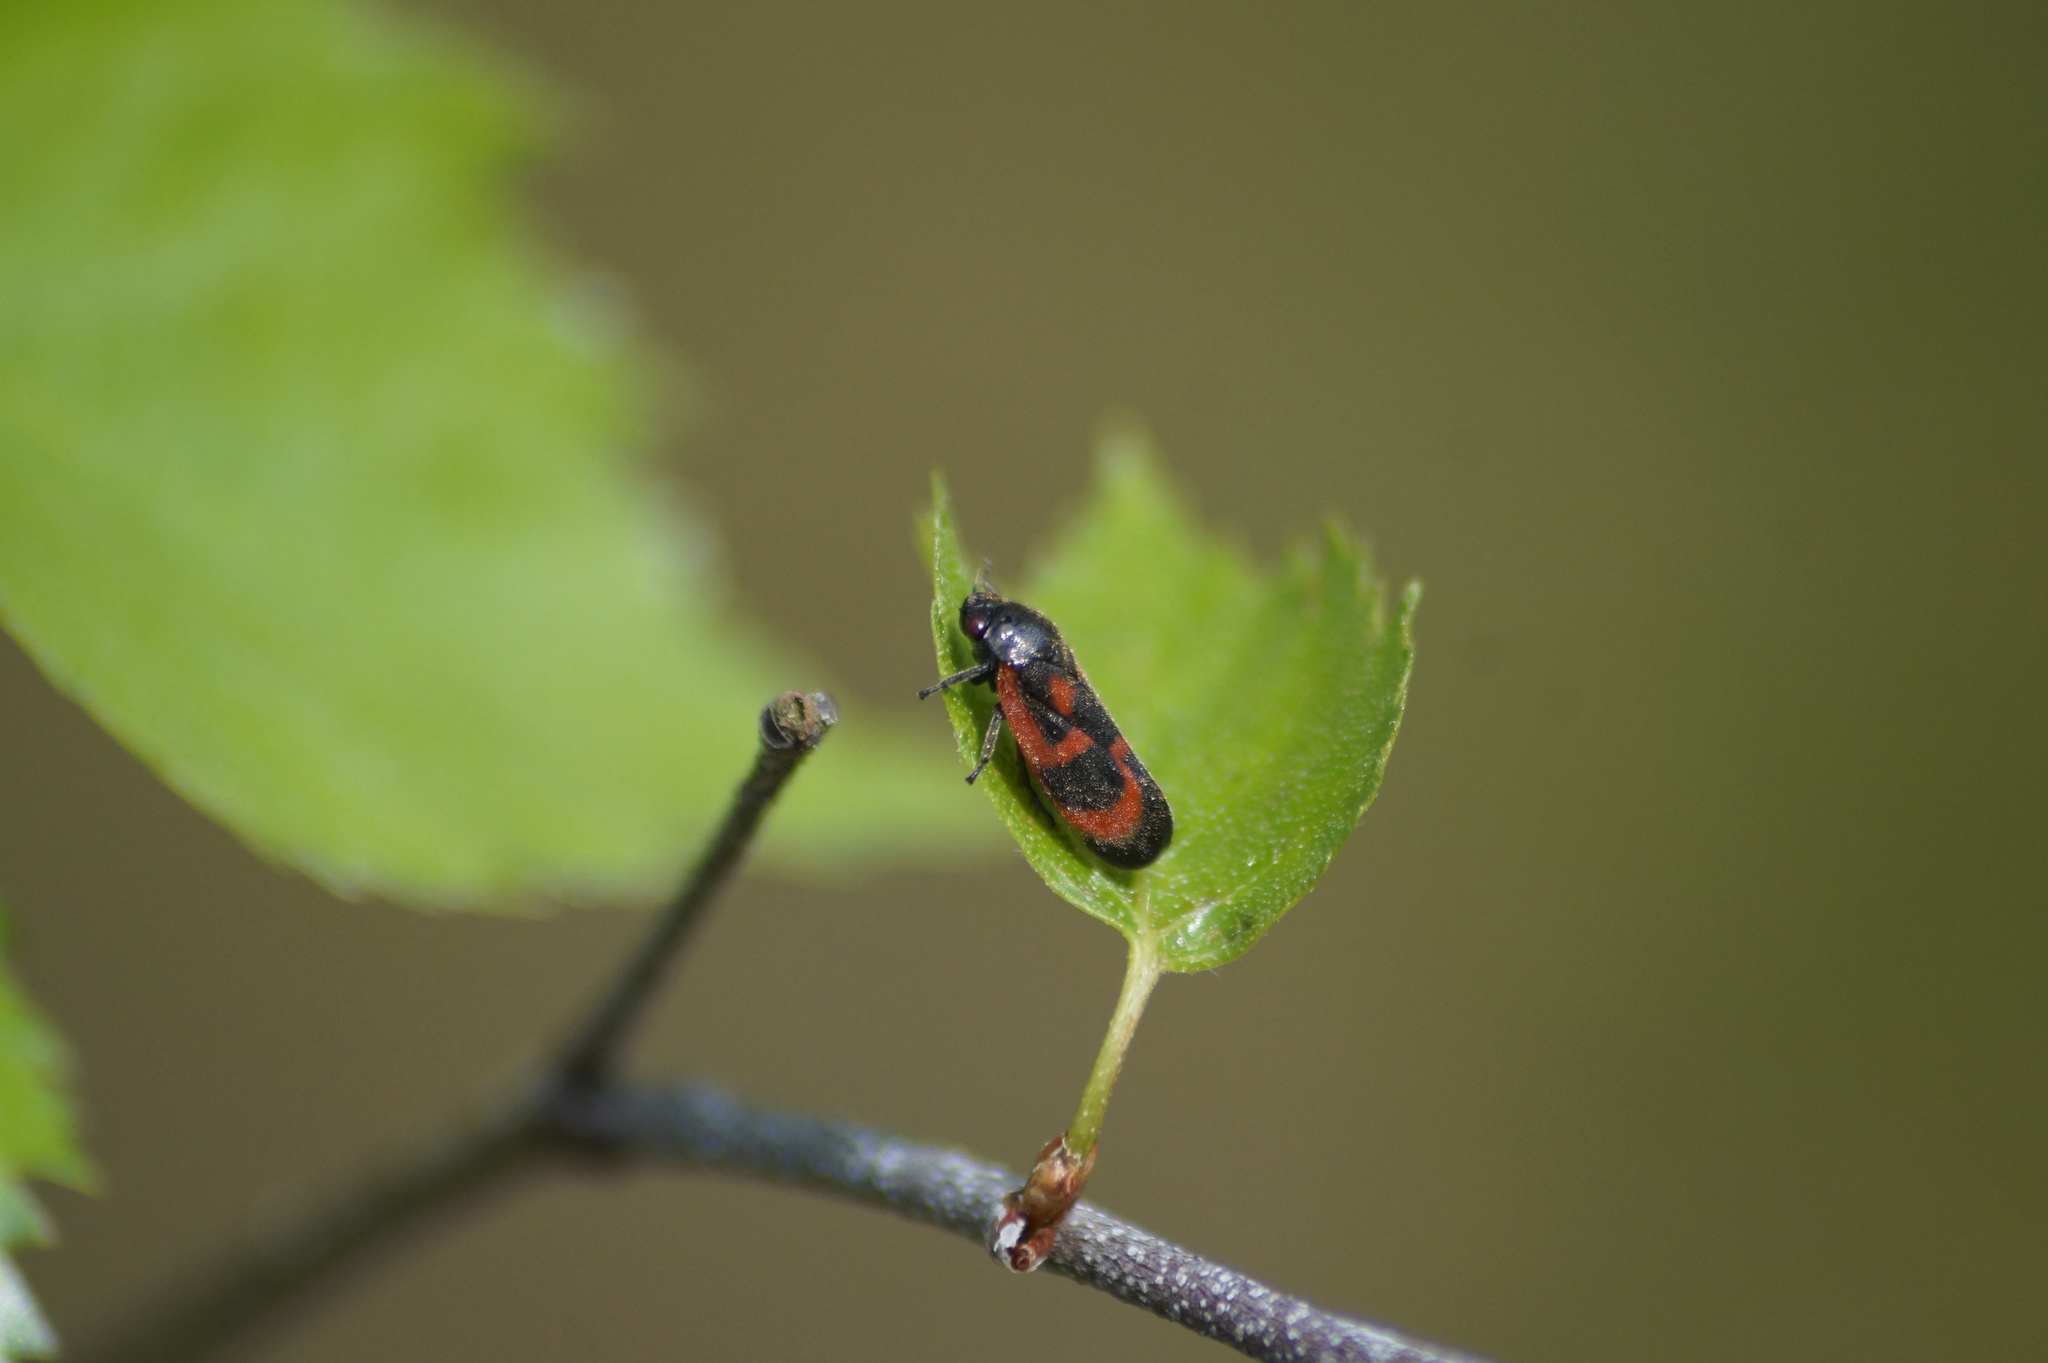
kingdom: Animalia
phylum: Arthropoda
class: Insecta
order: Hemiptera
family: Cercopidae
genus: Haematoloma
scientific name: Haematoloma dorsata
